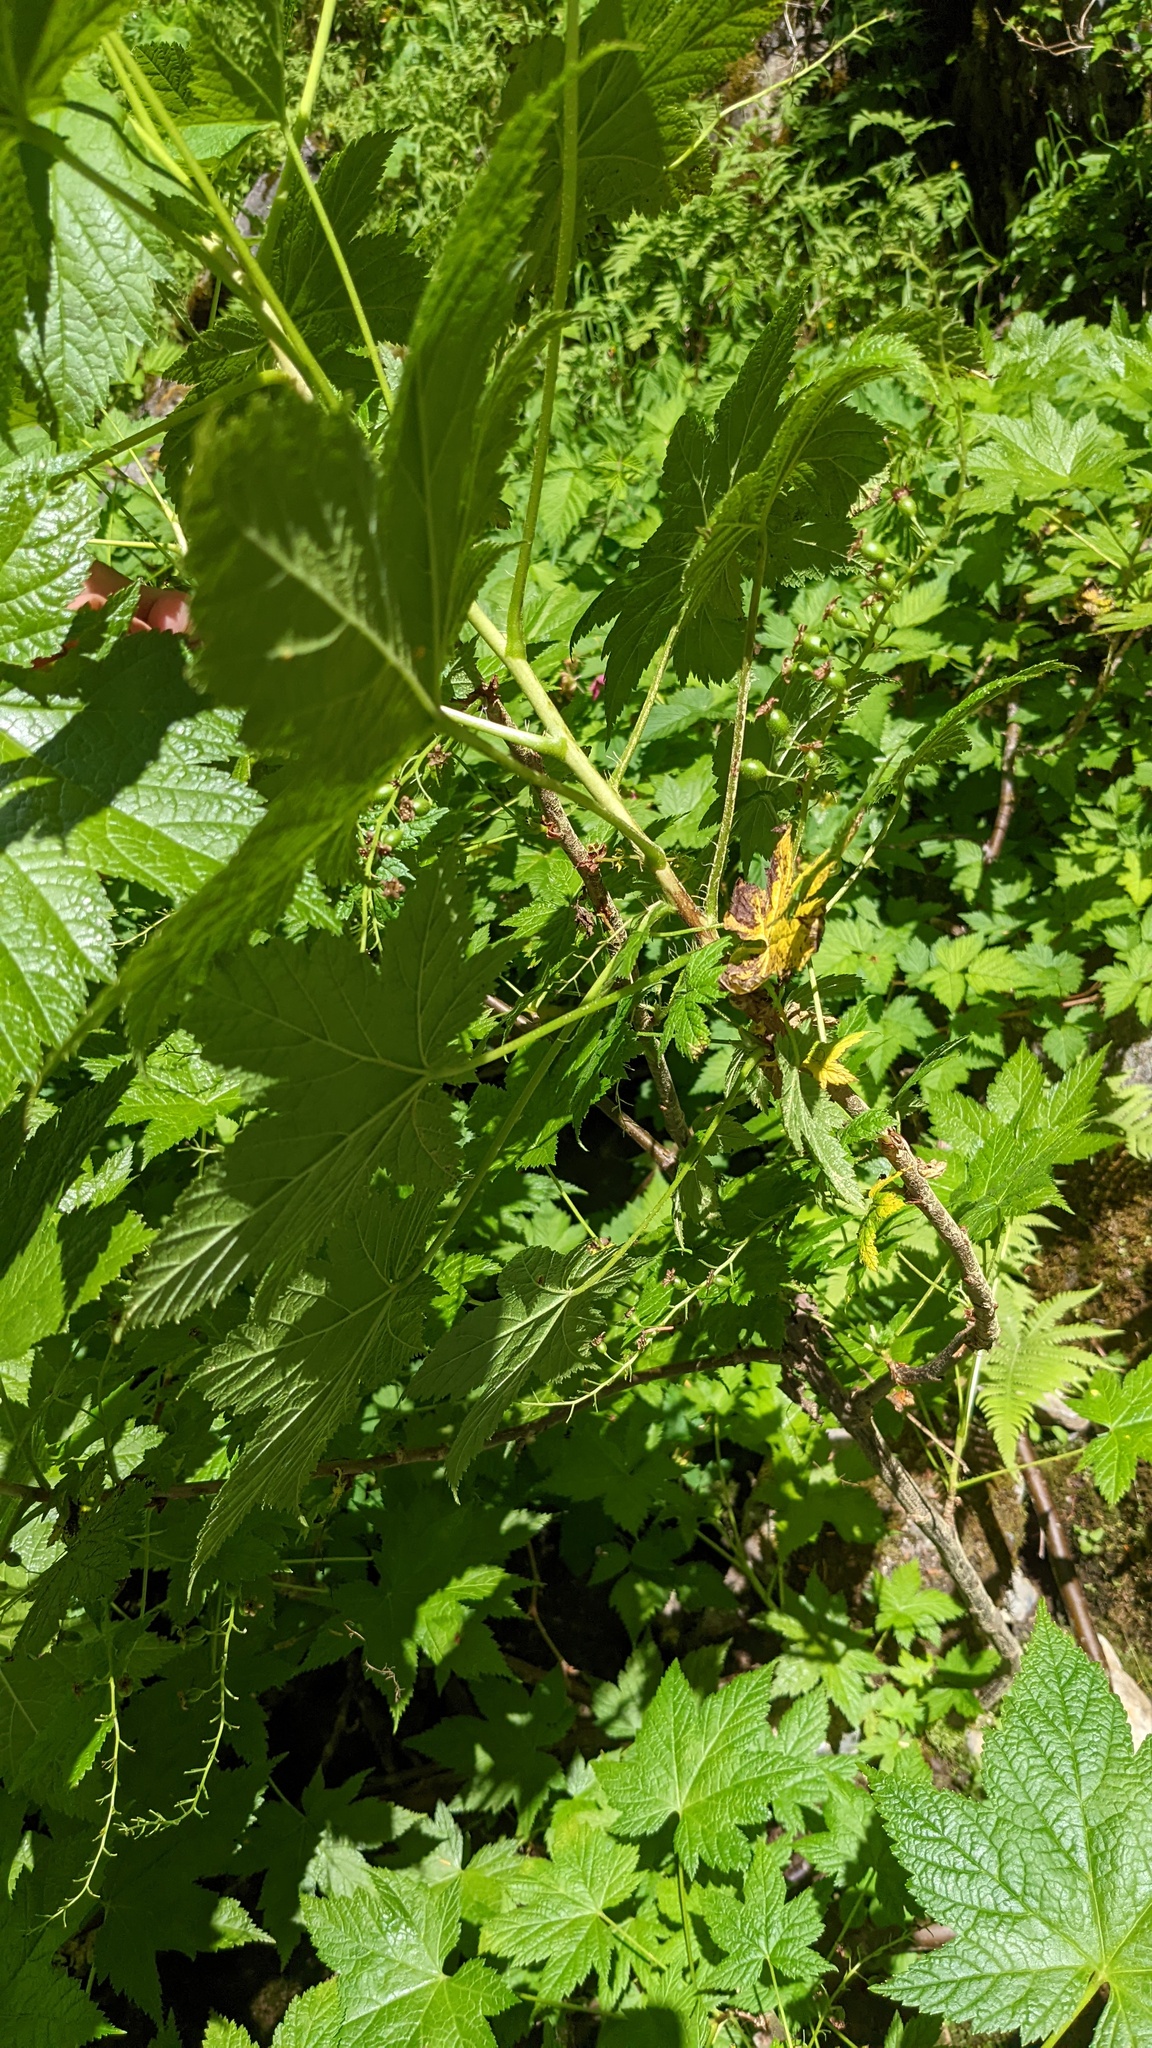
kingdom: Plantae
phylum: Tracheophyta
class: Magnoliopsida
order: Saxifragales
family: Grossulariaceae
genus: Ribes
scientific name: Ribes bracteosum
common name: California black currant
